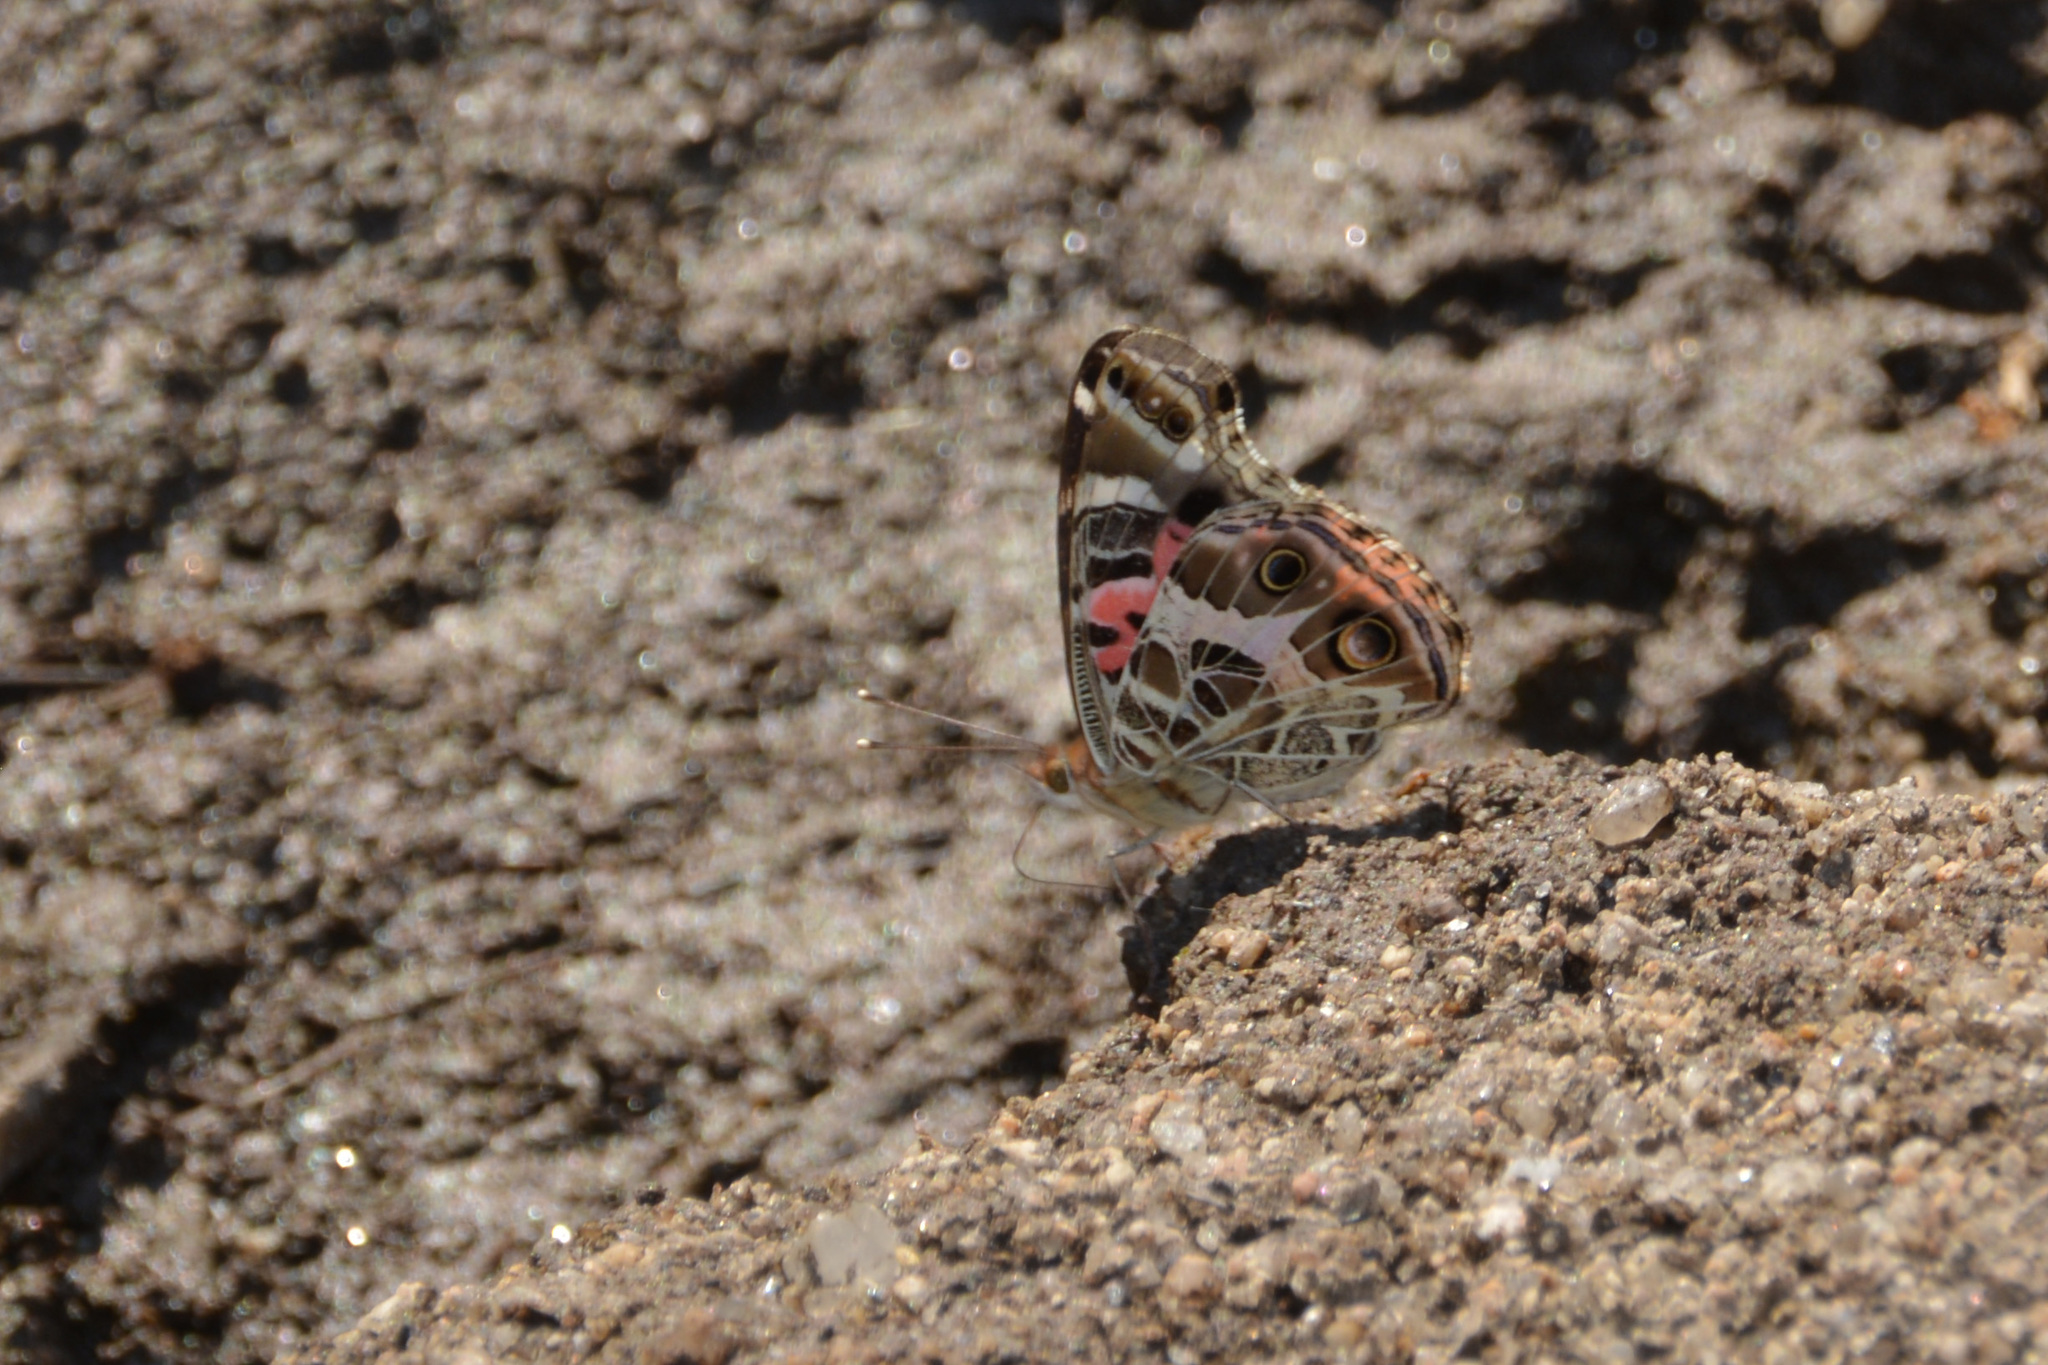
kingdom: Animalia
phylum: Arthropoda
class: Insecta
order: Lepidoptera
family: Nymphalidae
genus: Vanessa
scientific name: Vanessa braziliensis
